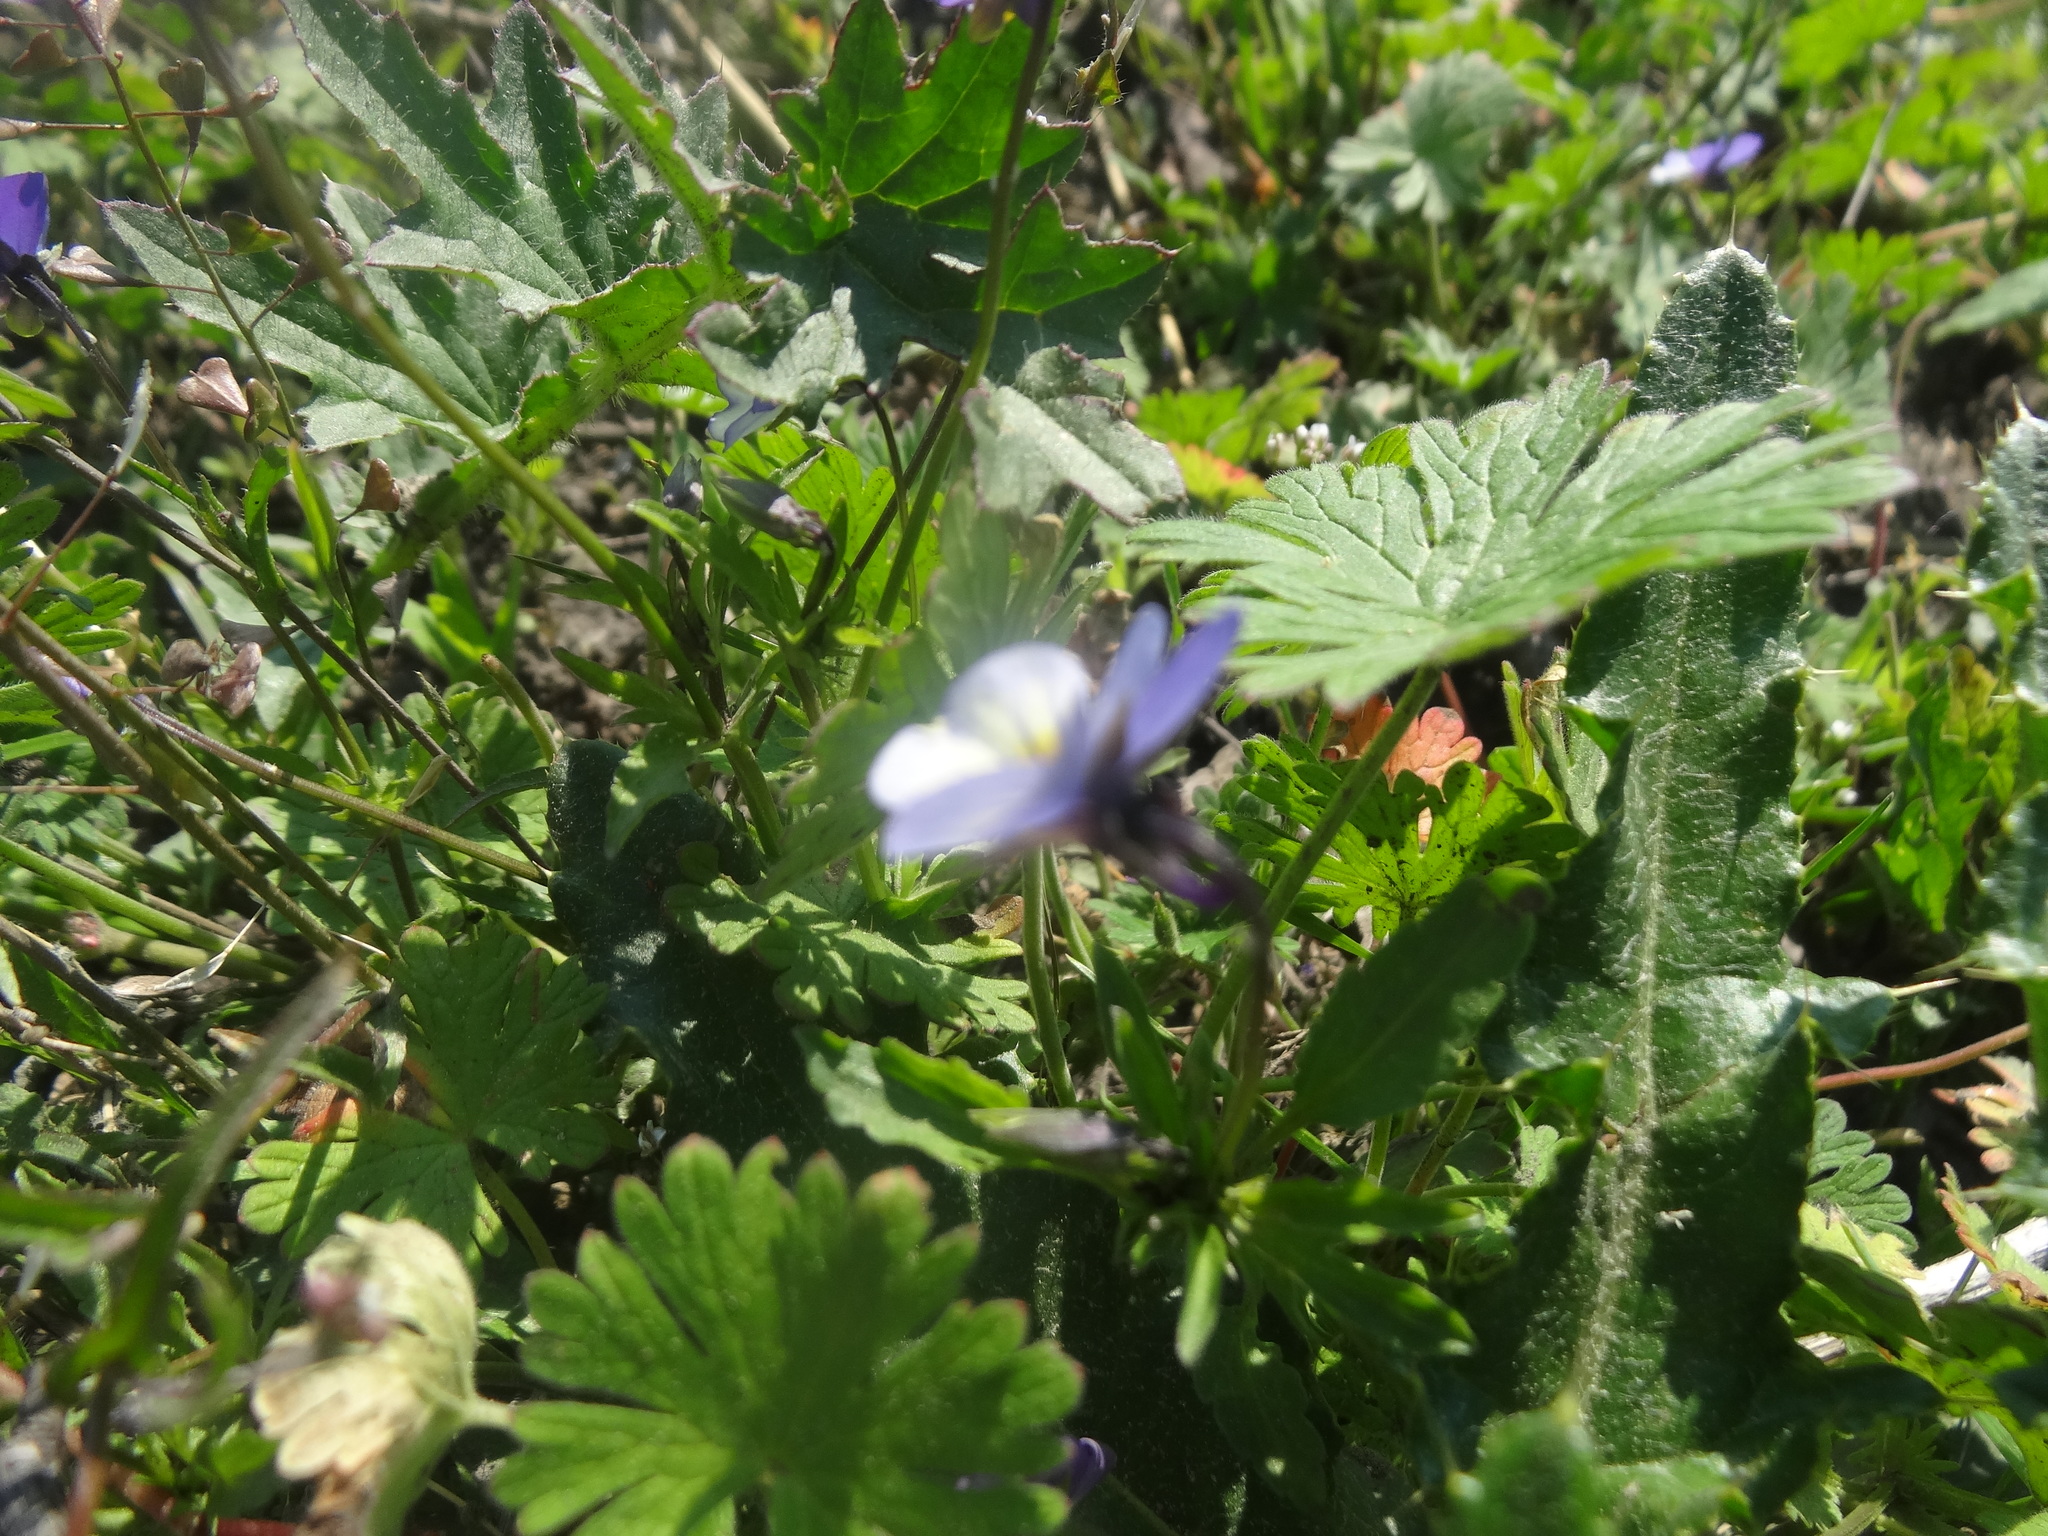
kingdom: Plantae
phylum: Tracheophyta
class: Magnoliopsida
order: Malpighiales
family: Violaceae
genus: Viola
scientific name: Viola tricolor
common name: Pansy
